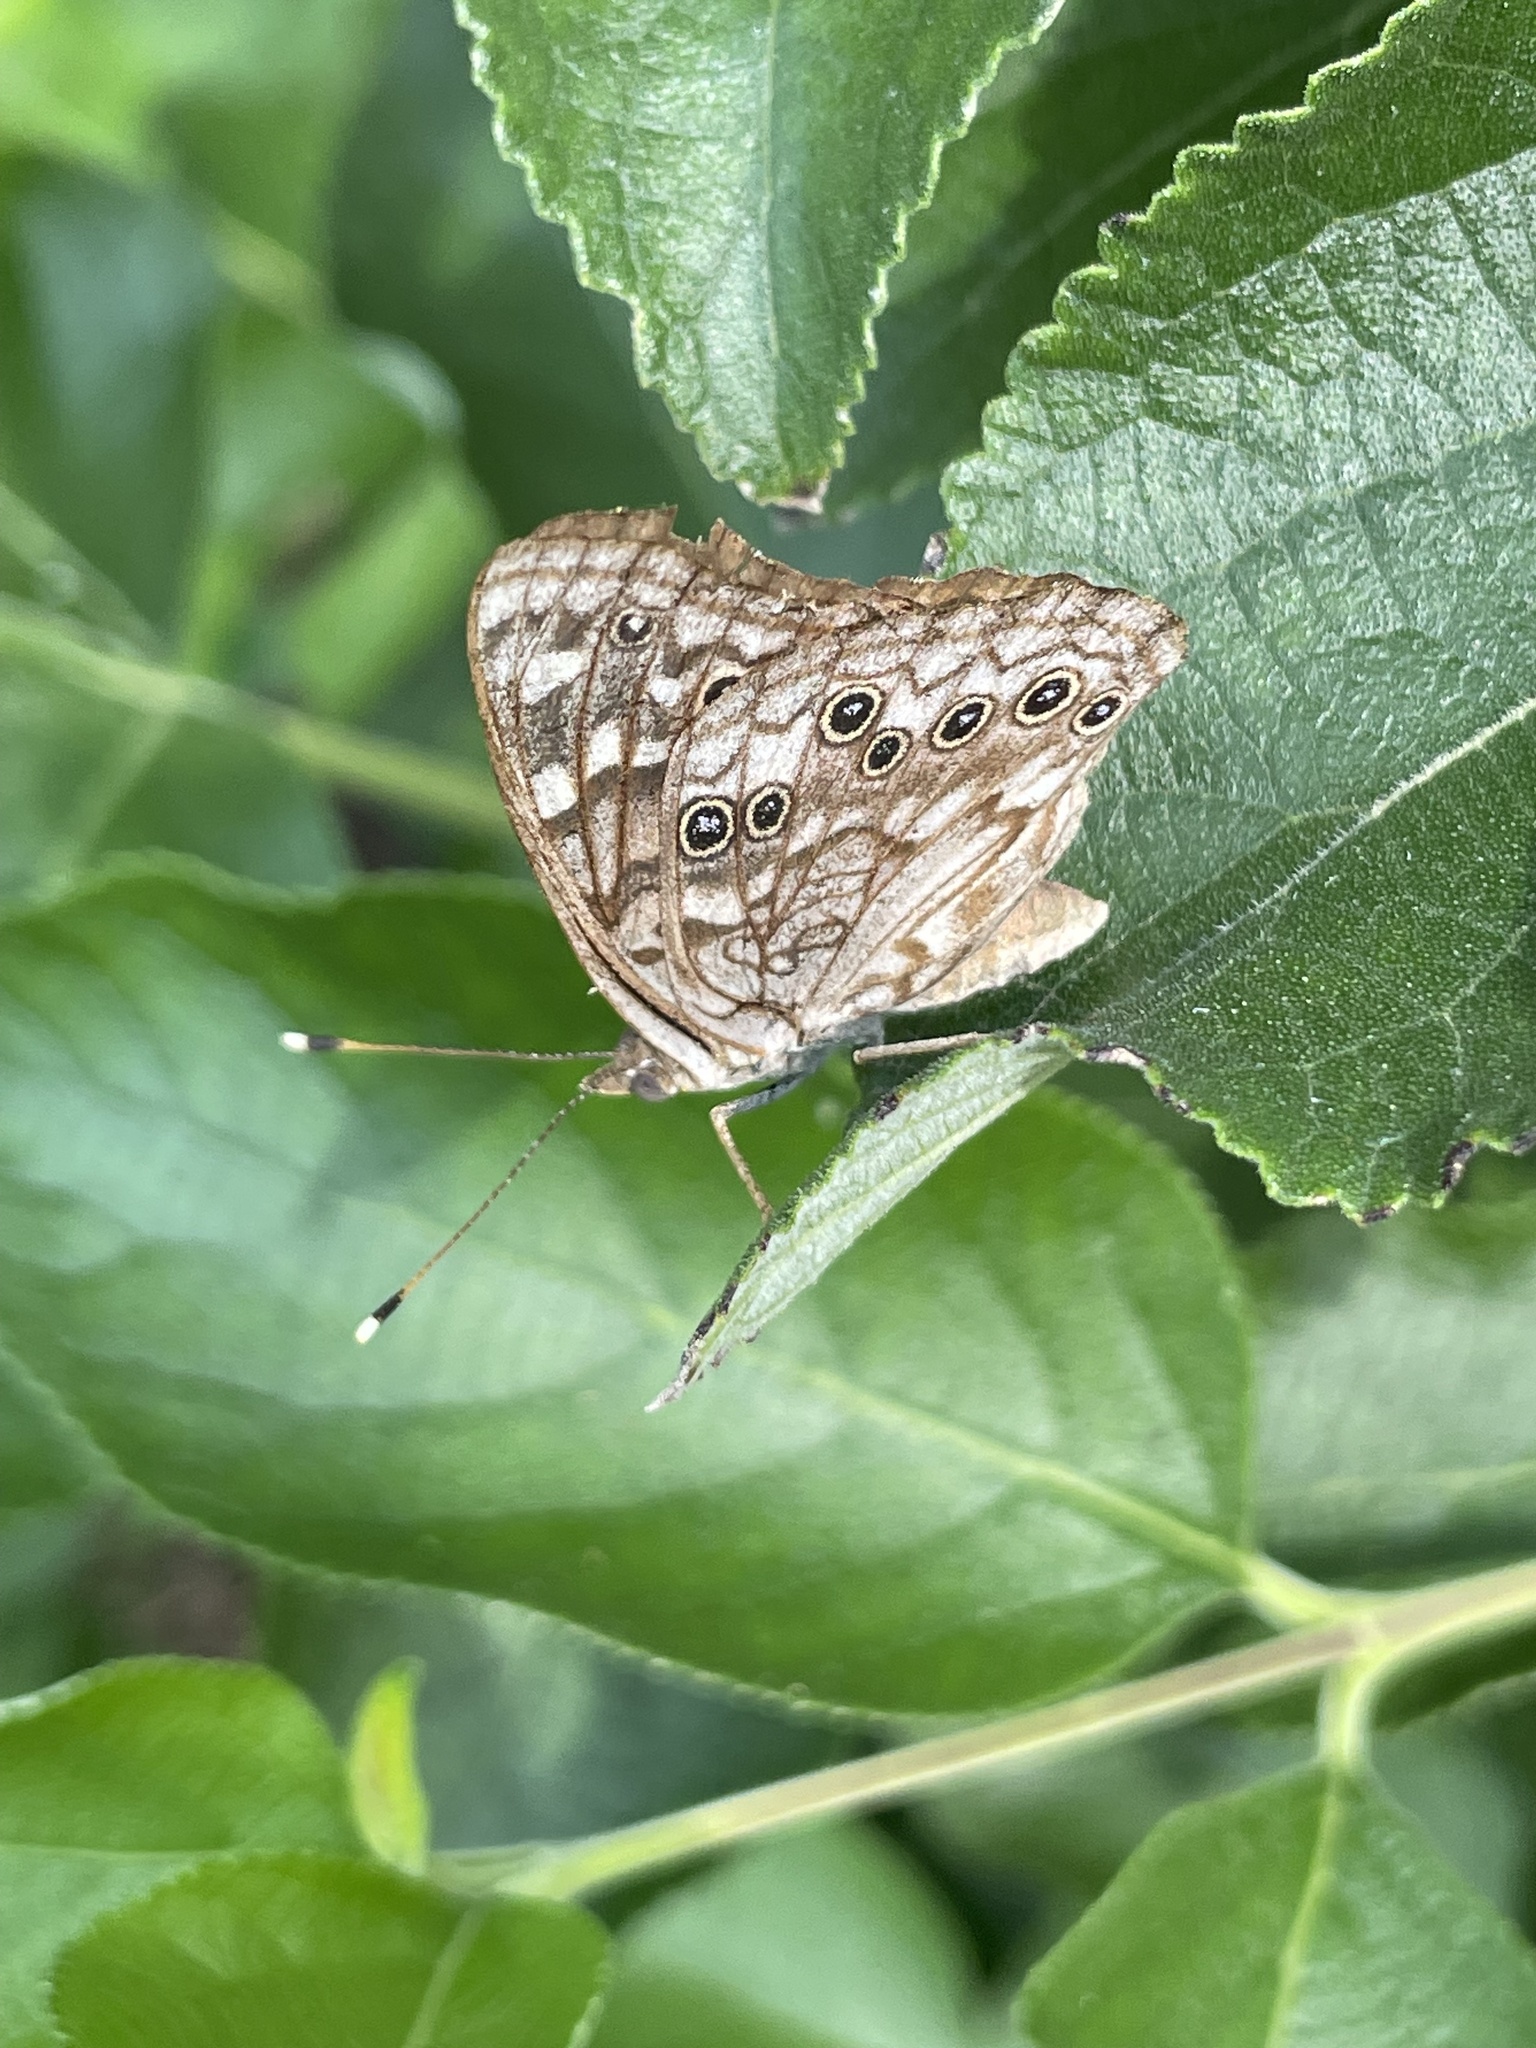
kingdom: Animalia
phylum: Arthropoda
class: Insecta
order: Lepidoptera
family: Nymphalidae
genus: Asterocampa
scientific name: Asterocampa celtis
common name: Hackberry emperor
